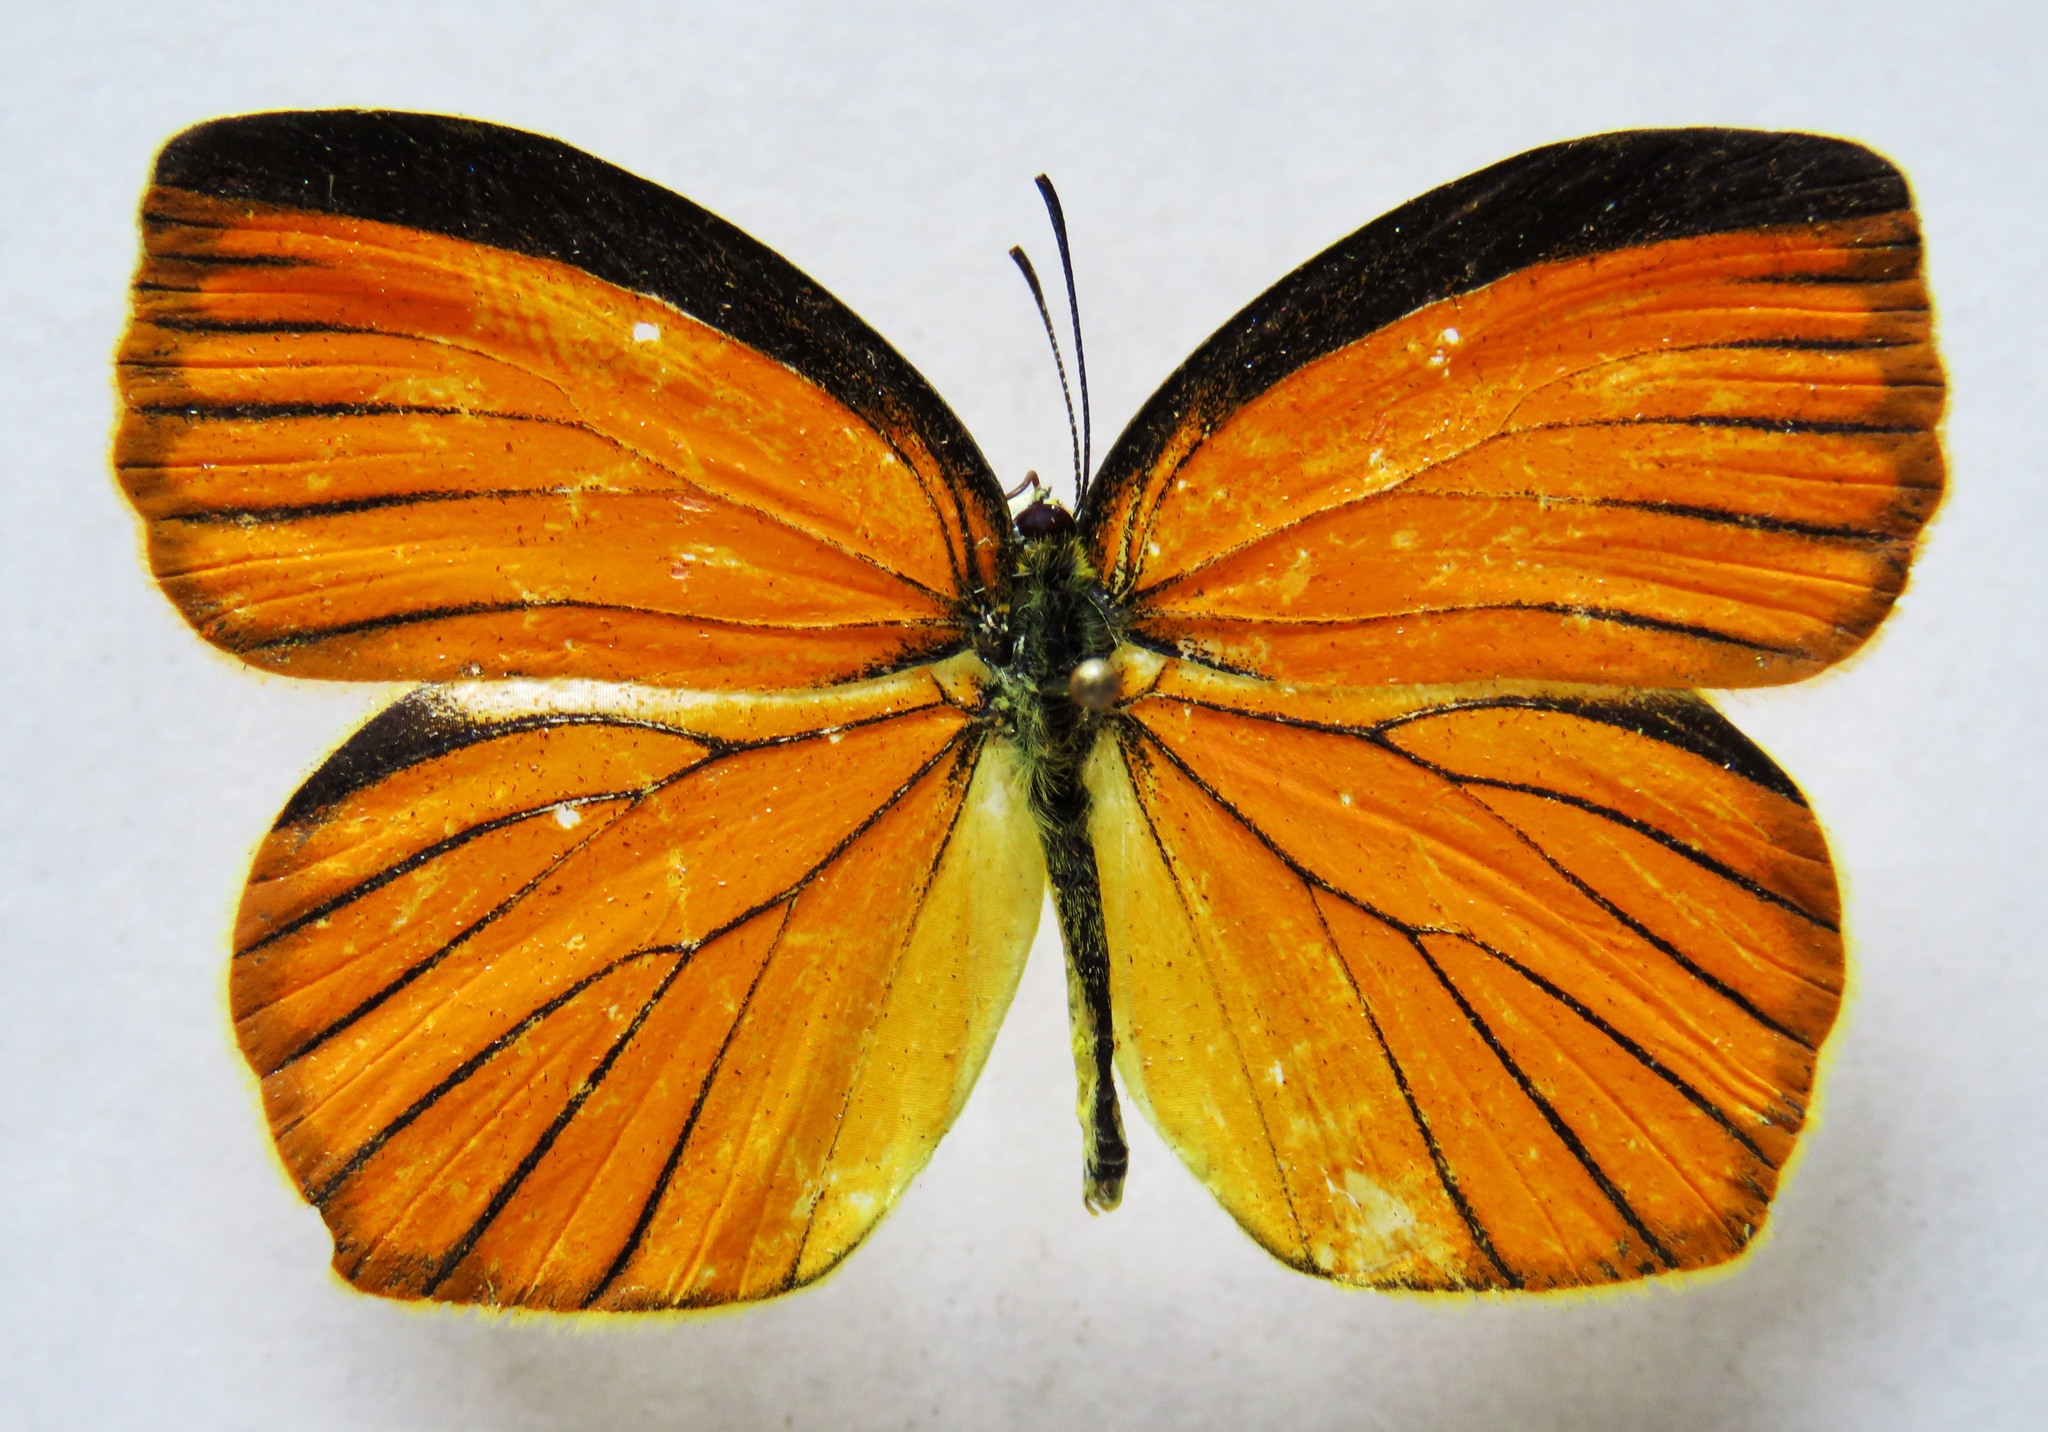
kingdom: Animalia
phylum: Arthropoda
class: Insecta
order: Lepidoptera
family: Pieridae
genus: Pyrisitia
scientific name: Pyrisitia proterpia
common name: Tailed orange
